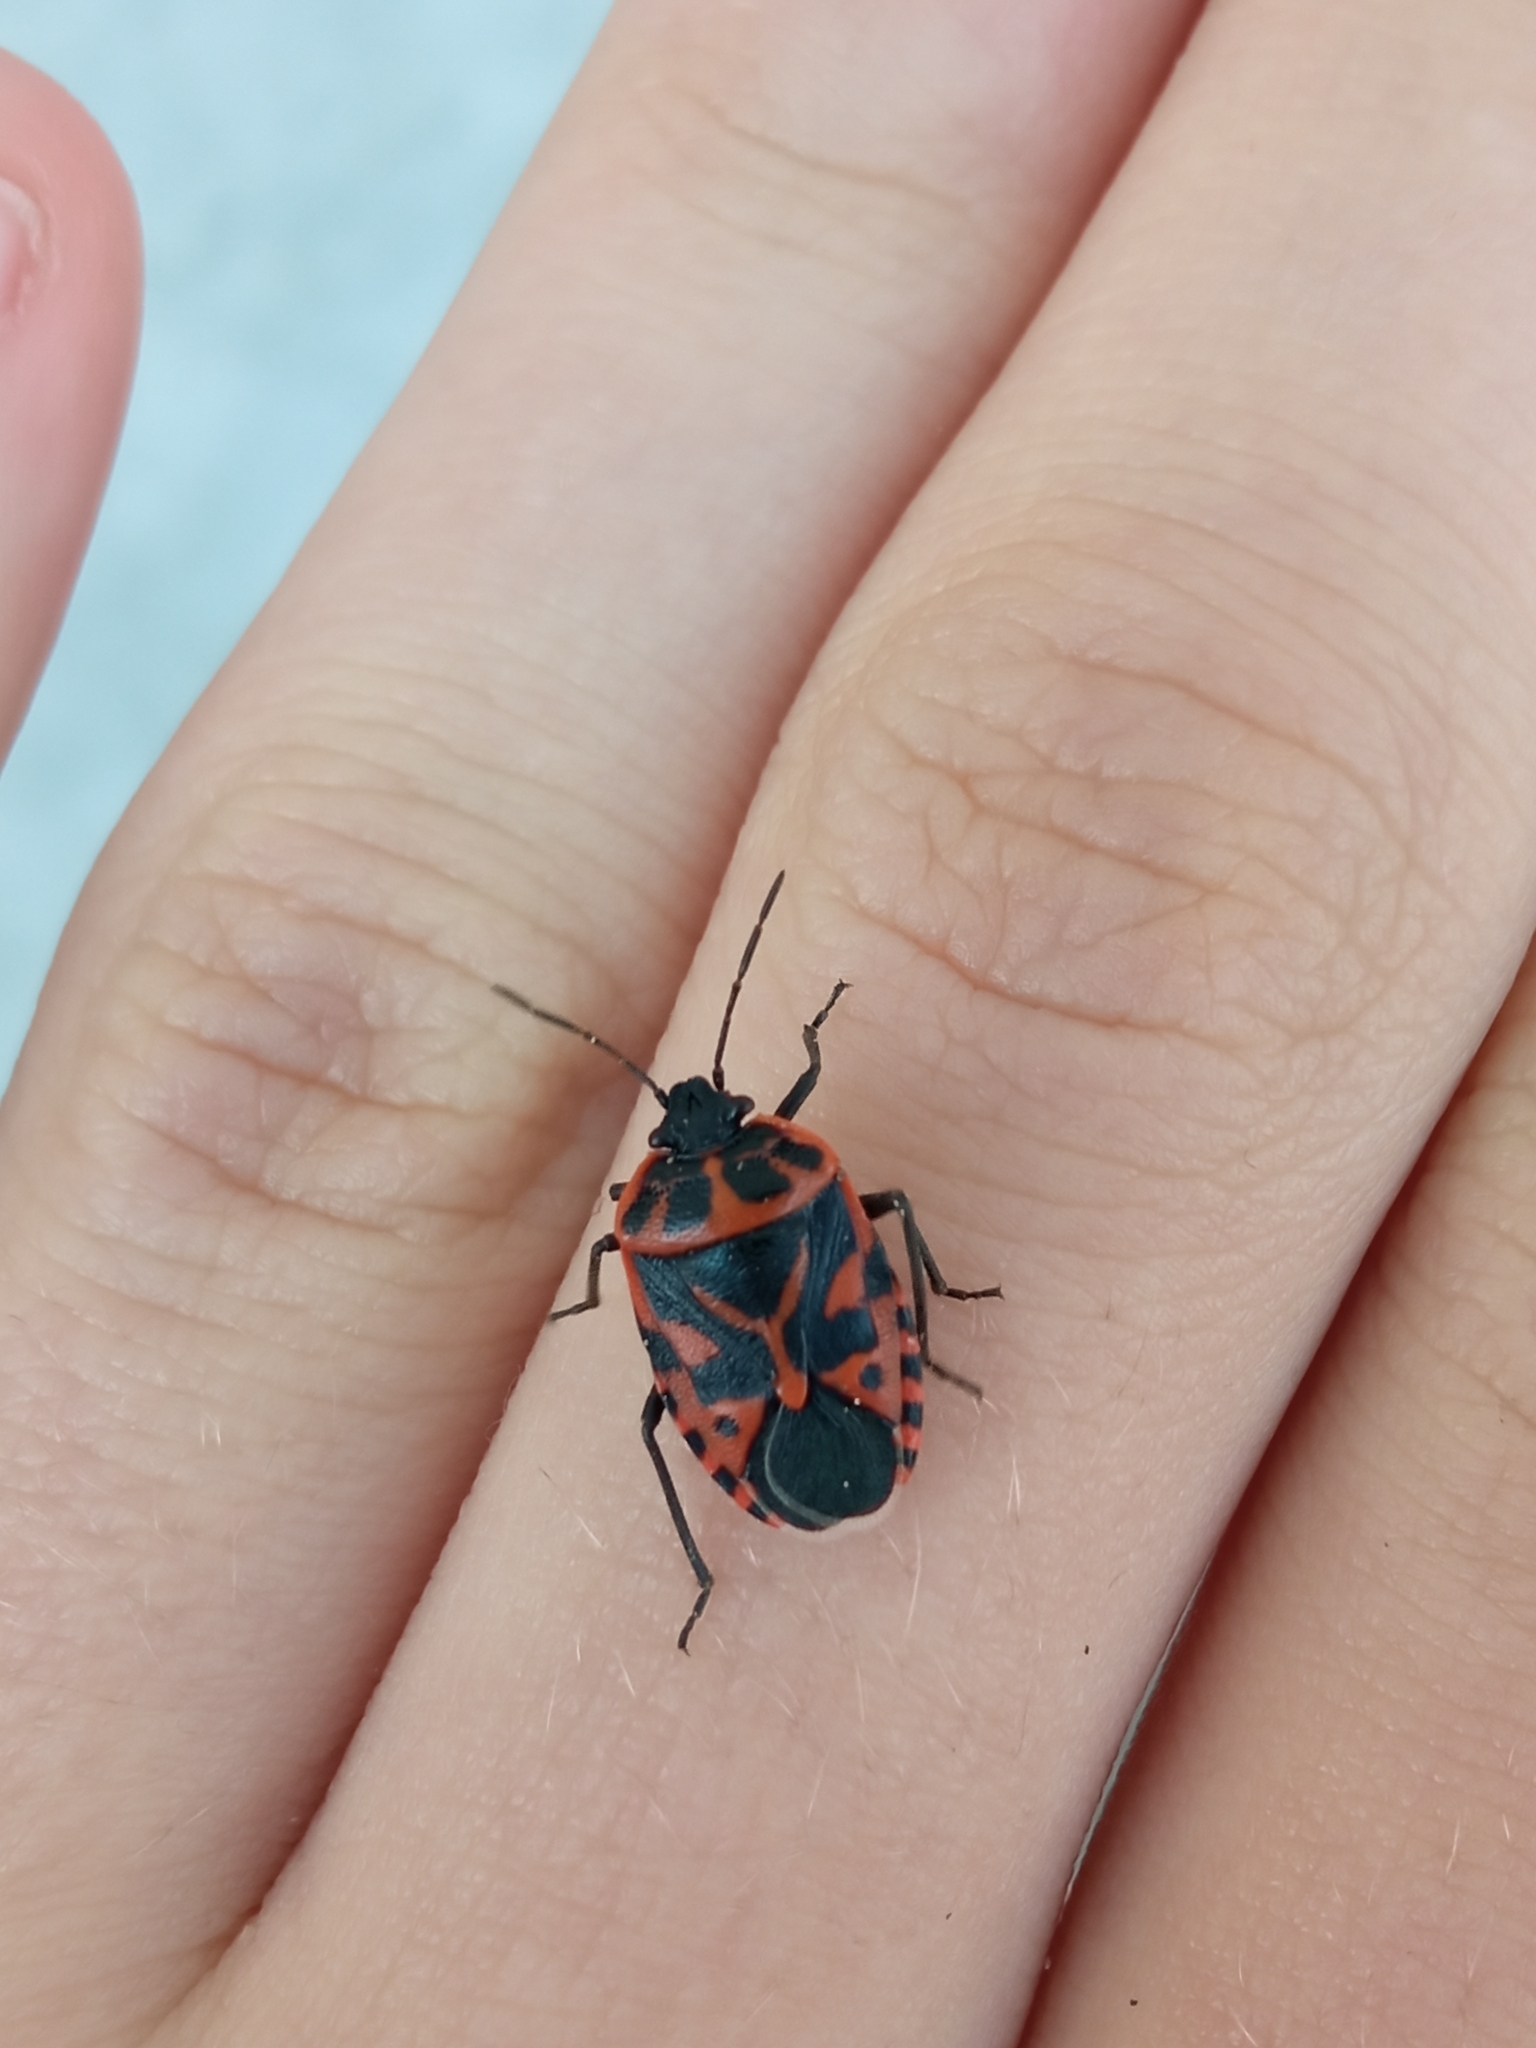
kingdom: Animalia
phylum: Arthropoda
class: Insecta
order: Hemiptera
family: Pentatomidae
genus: Eurydema
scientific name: Eurydema ventralis
